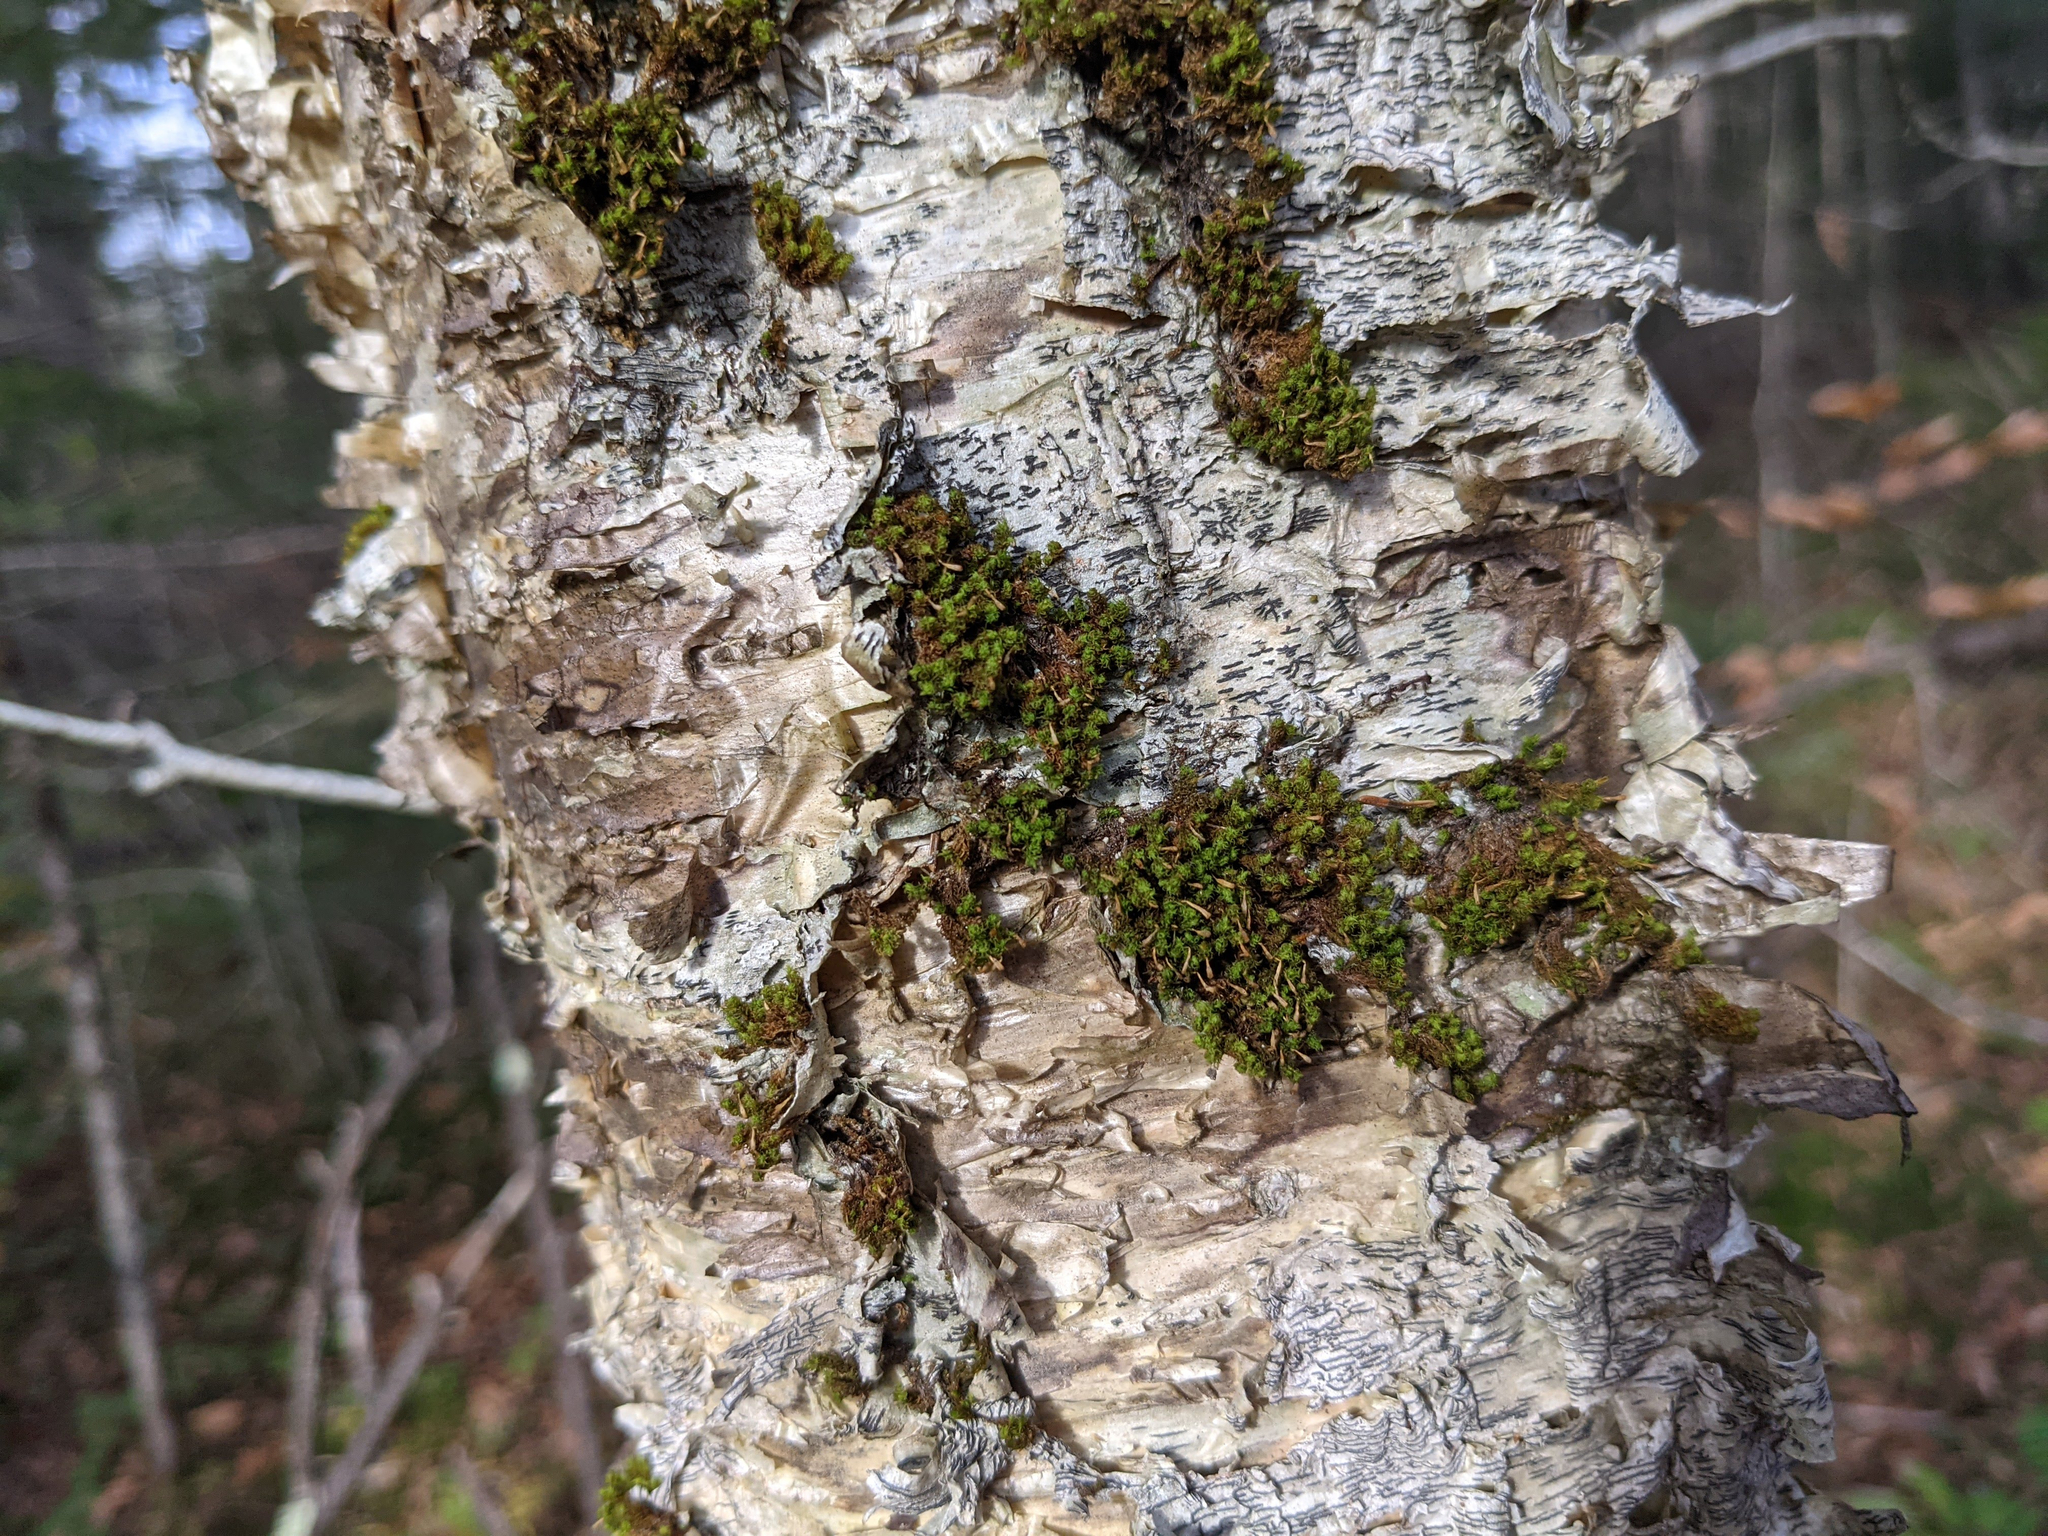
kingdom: Plantae
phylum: Bryophyta
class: Bryopsida
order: Orthotrichales
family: Orthotrichaceae
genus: Ulota
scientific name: Ulota crispa
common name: Crisped pincushion moss
